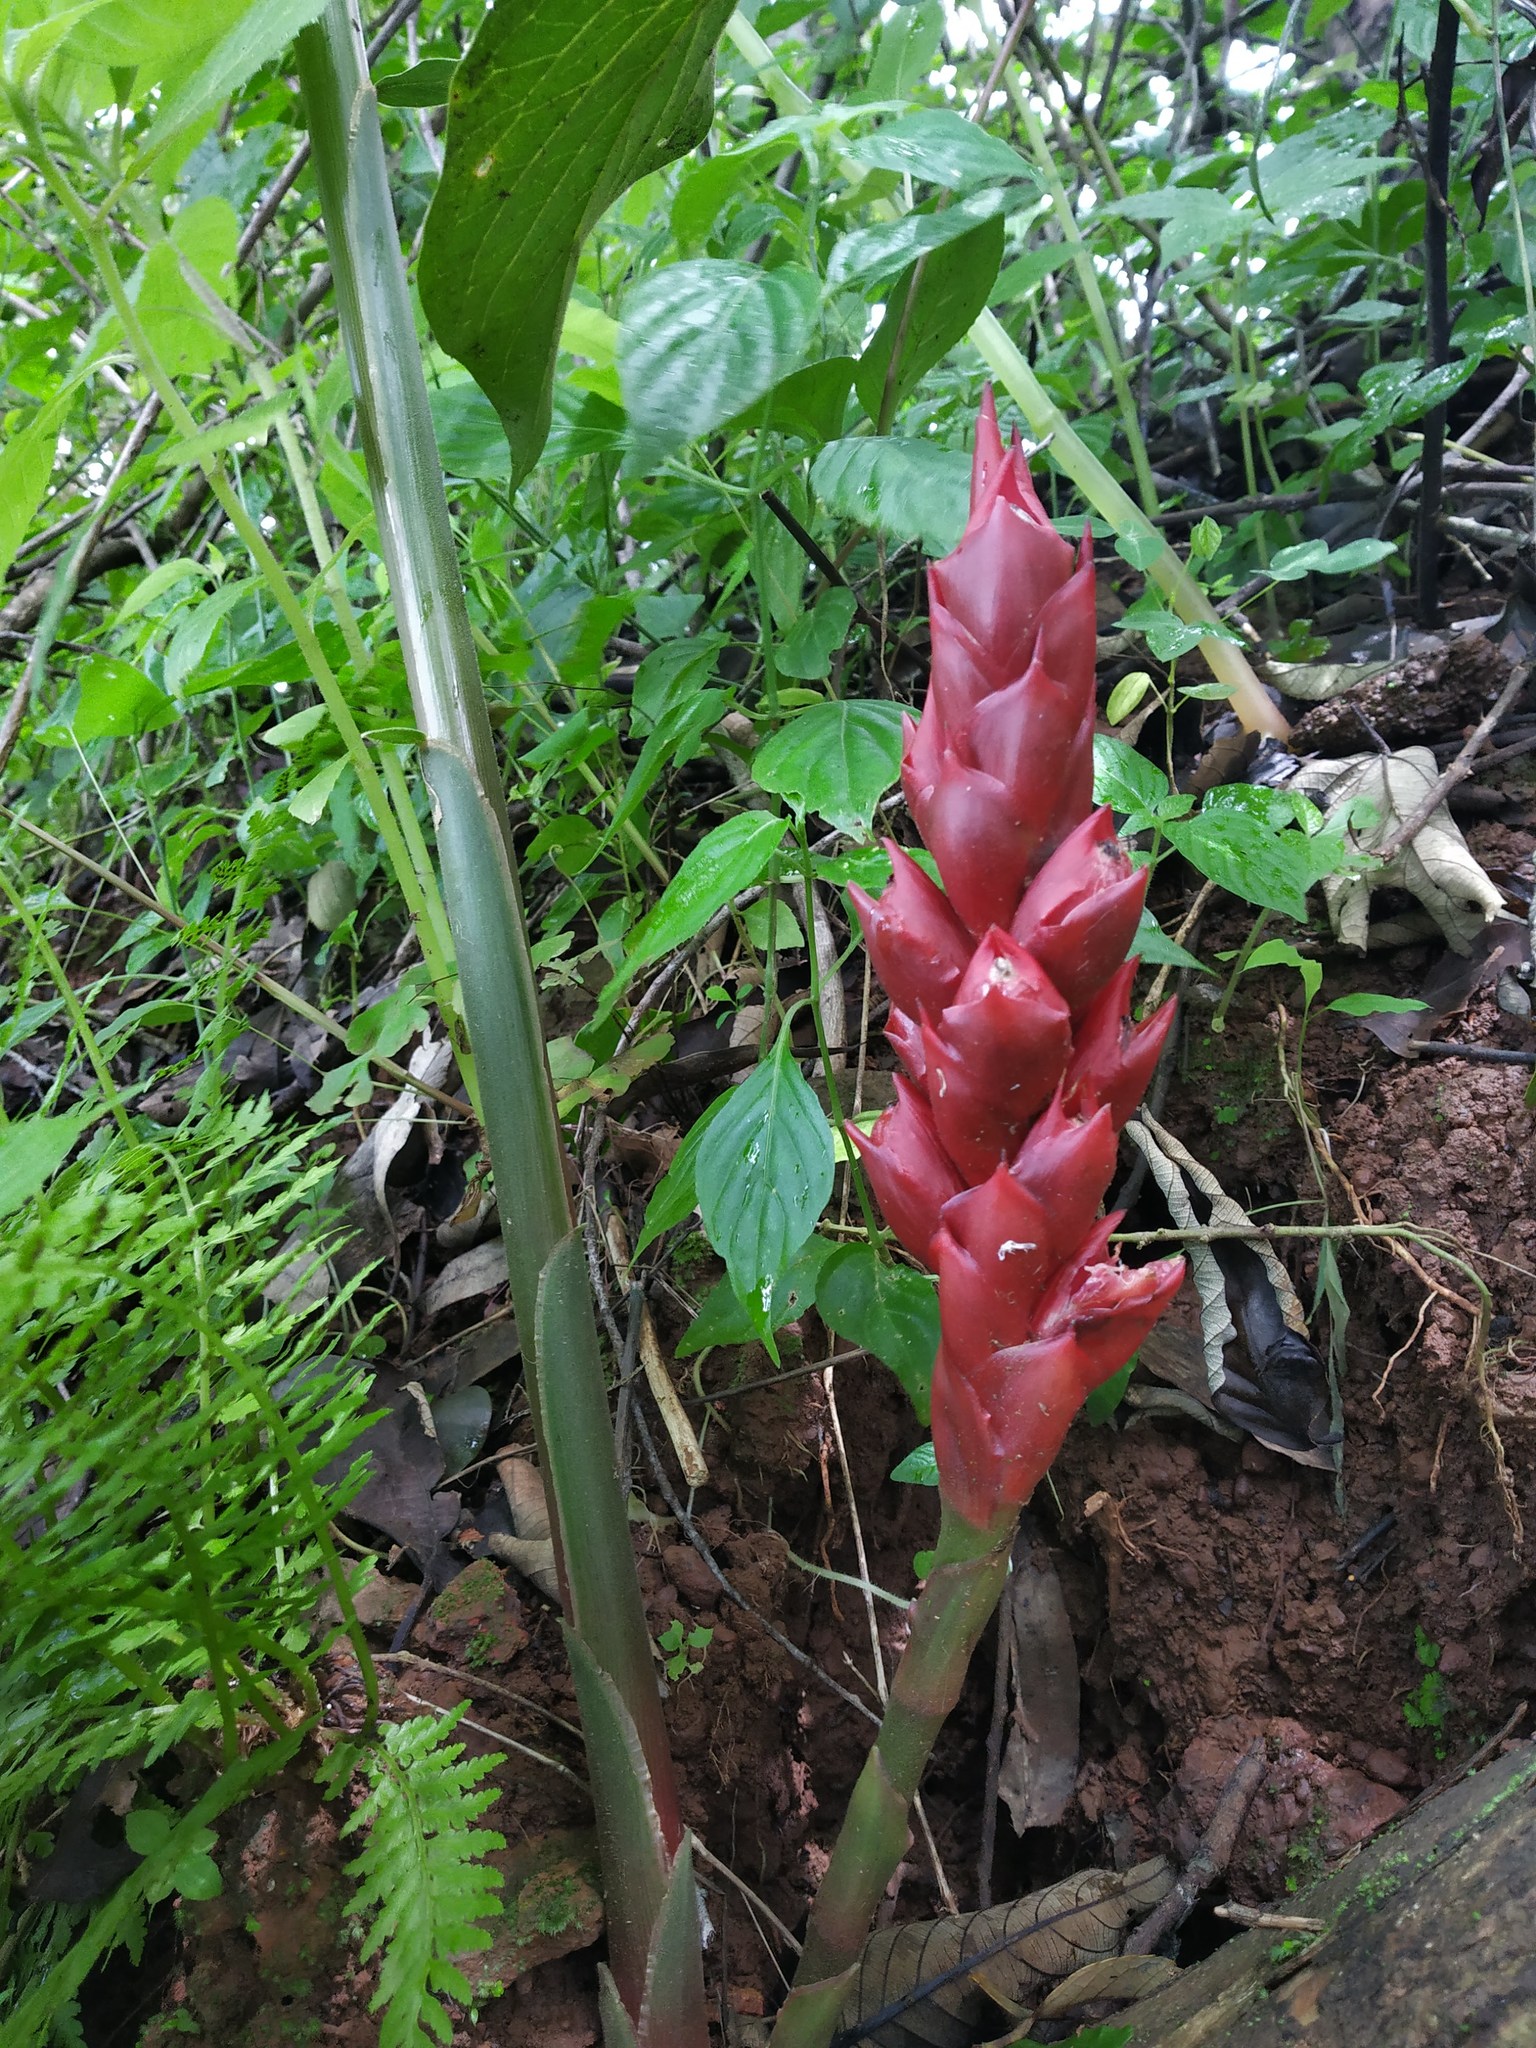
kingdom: Plantae
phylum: Tracheophyta
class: Liliopsida
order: Zingiberales
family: Zingiberaceae
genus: Zingiber
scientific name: Zingiber anamalayanum
